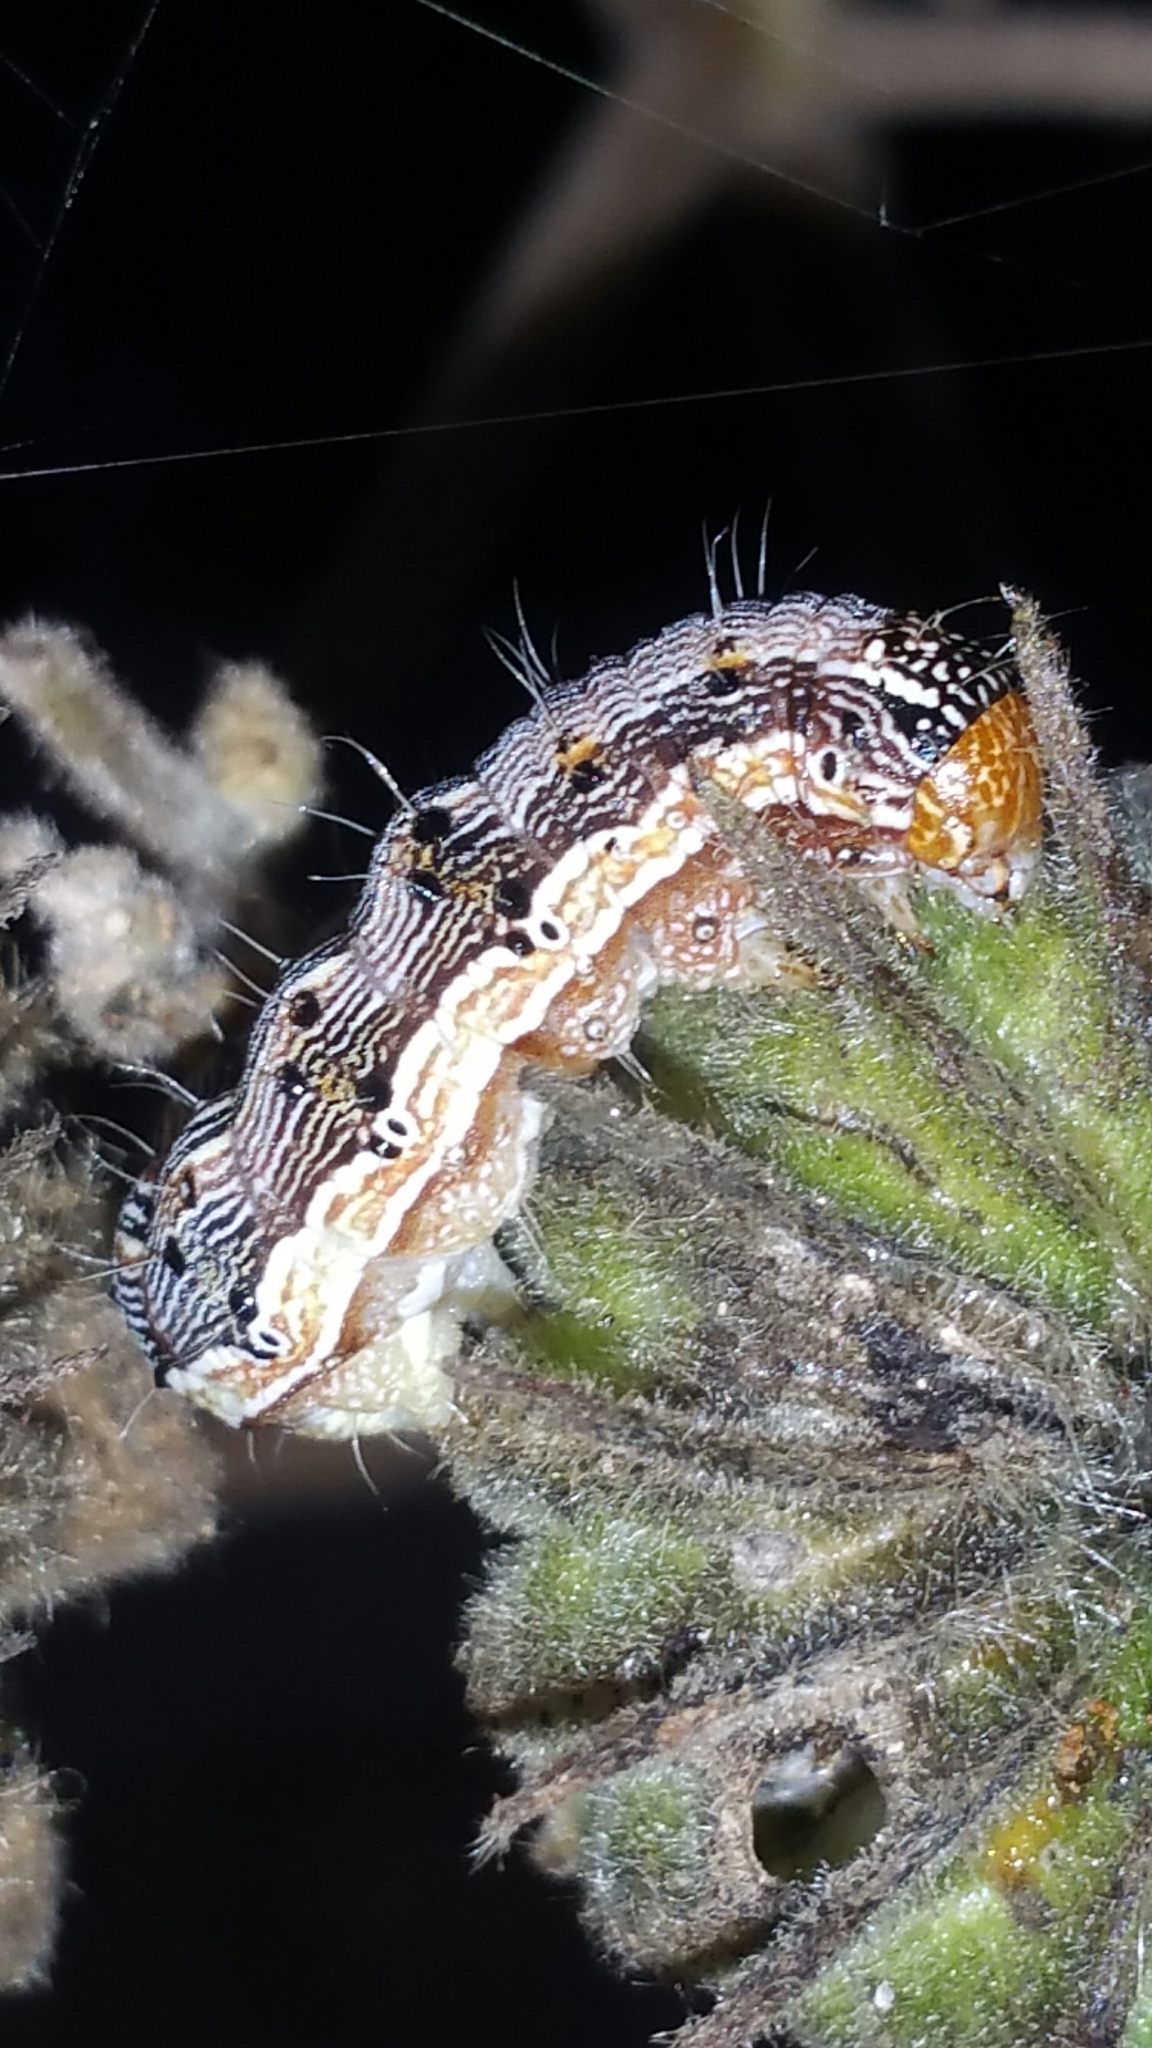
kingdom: Animalia
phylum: Arthropoda
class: Insecta
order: Lepidoptera
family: Noctuidae
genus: Helicoverpa
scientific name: Helicoverpa armigera
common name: Cotton bollworm
